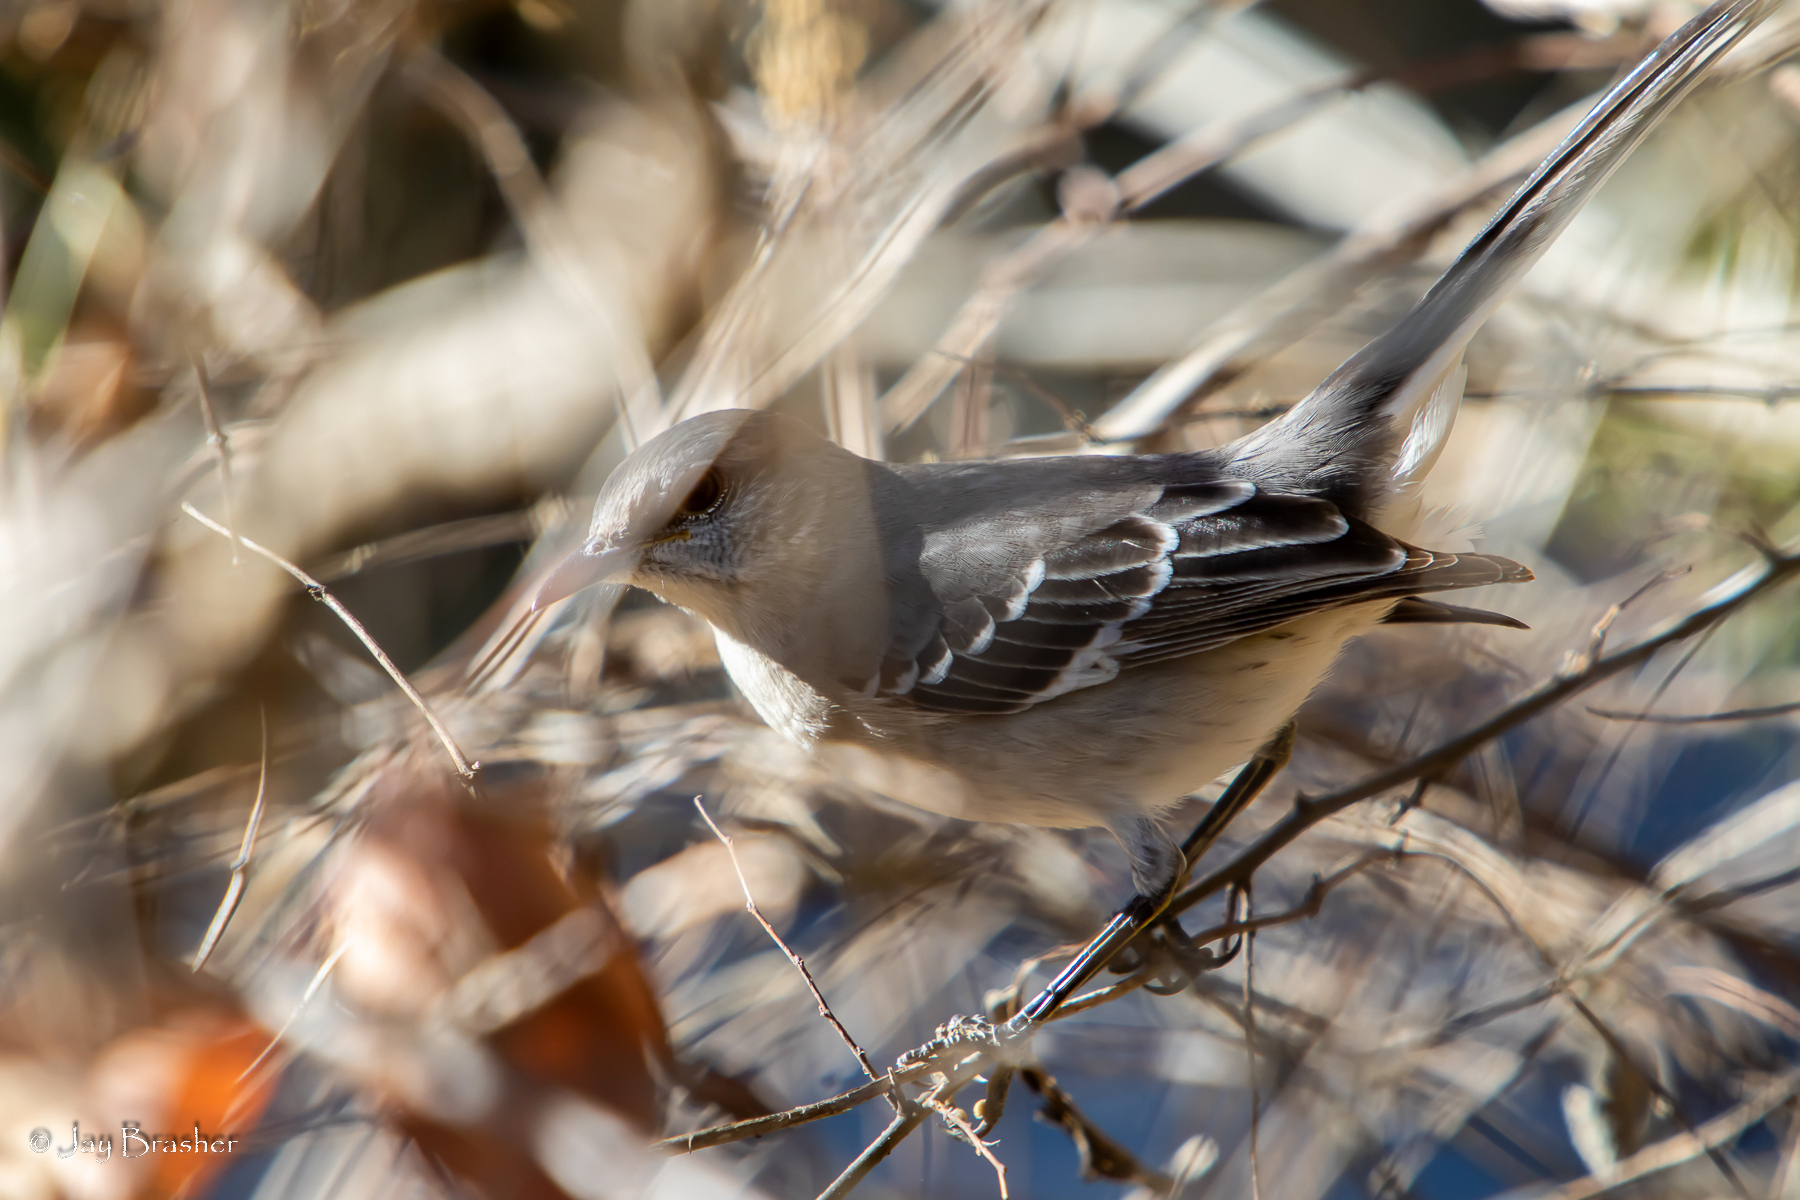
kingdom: Animalia
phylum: Chordata
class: Aves
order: Passeriformes
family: Mimidae
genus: Mimus
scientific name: Mimus polyglottos
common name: Northern mockingbird
